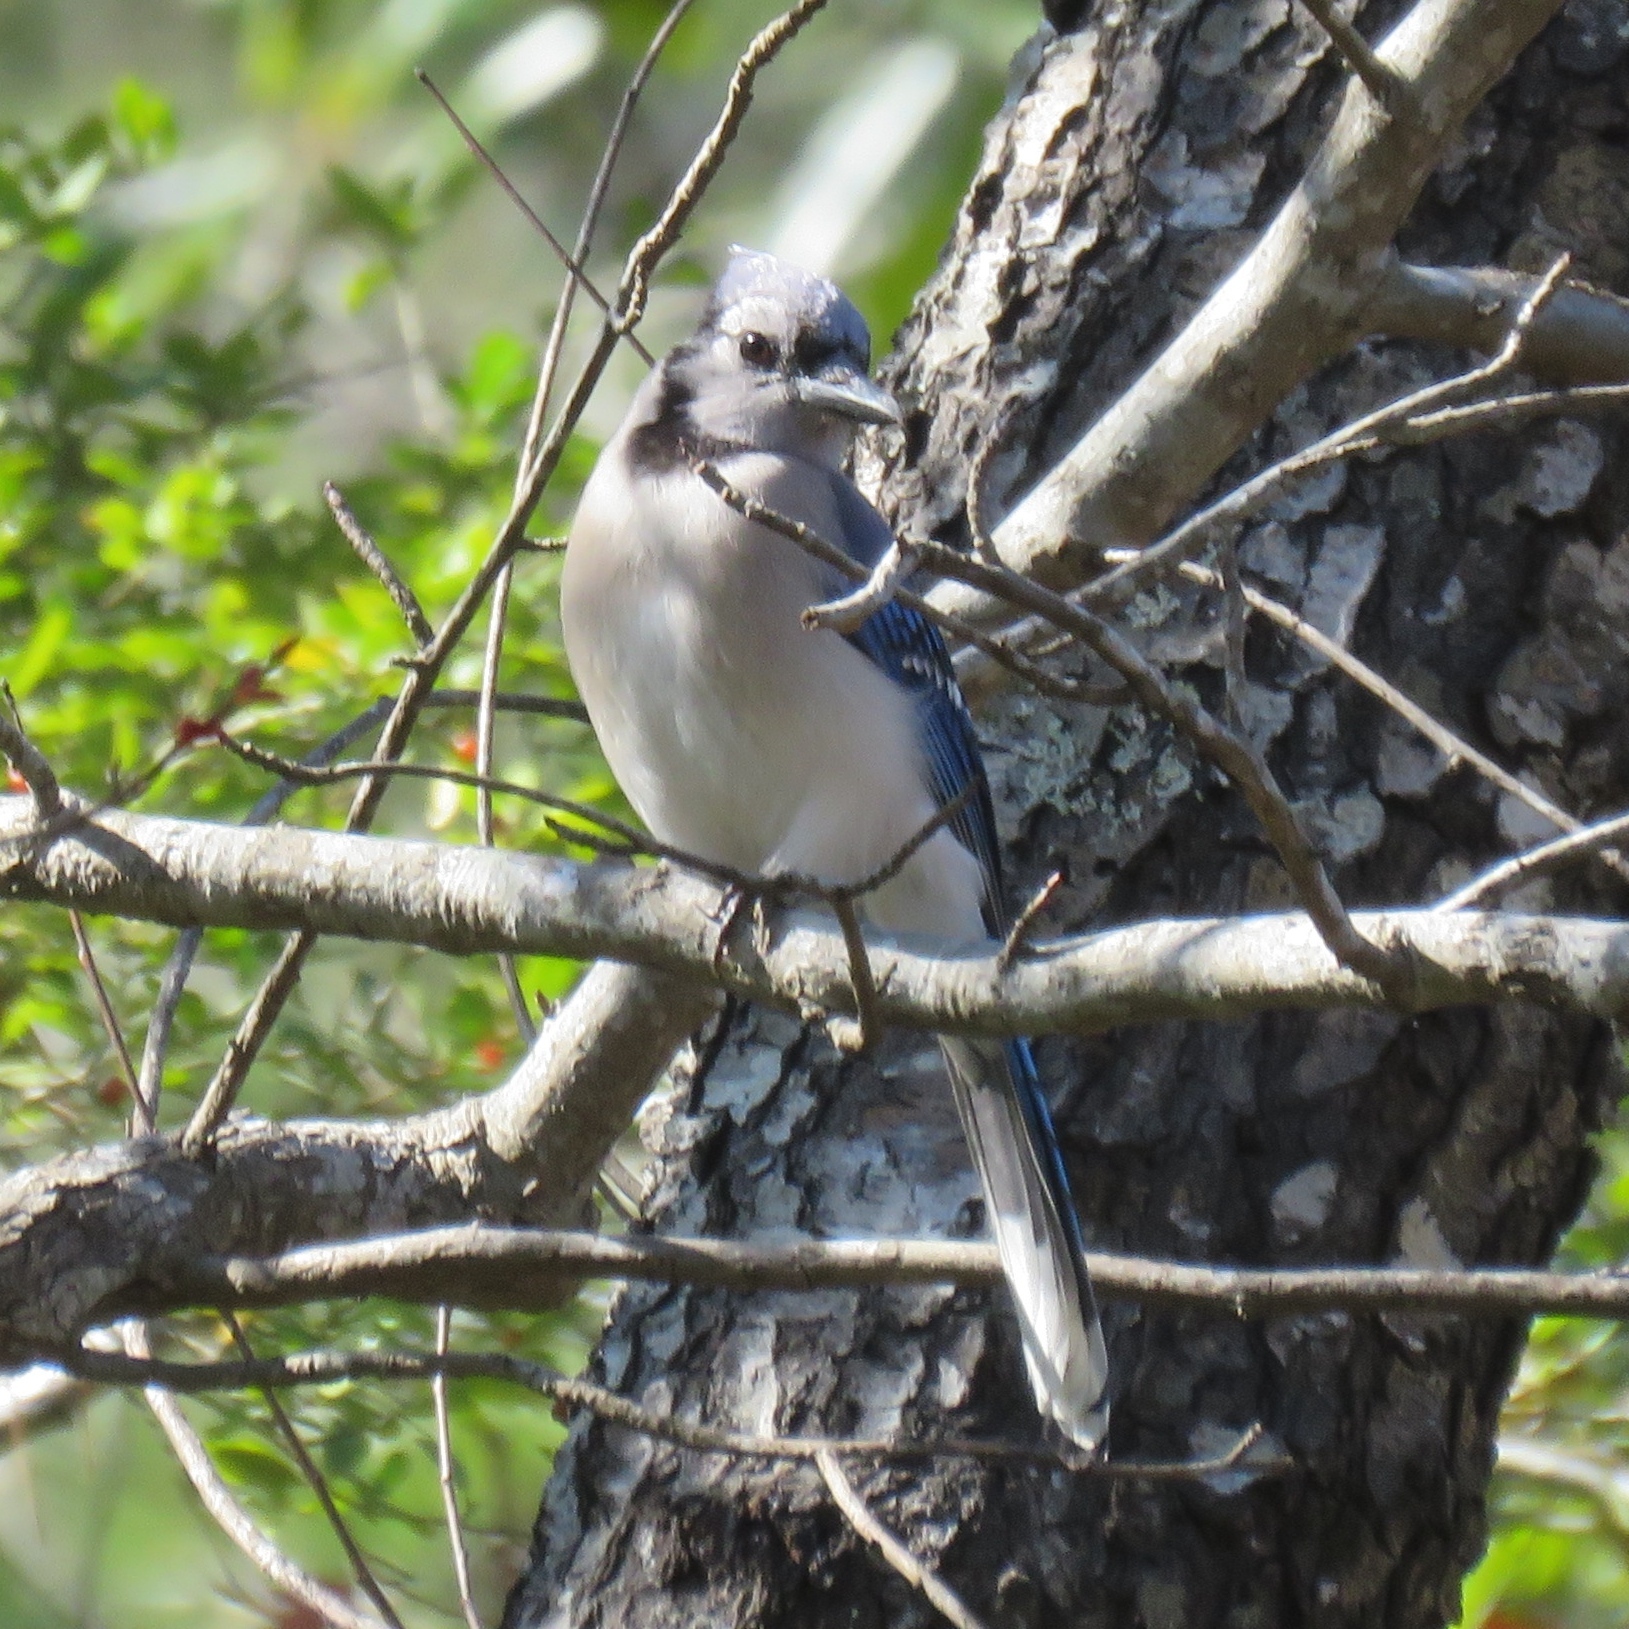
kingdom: Animalia
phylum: Chordata
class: Aves
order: Passeriformes
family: Corvidae
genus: Cyanocitta
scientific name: Cyanocitta cristata
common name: Blue jay
